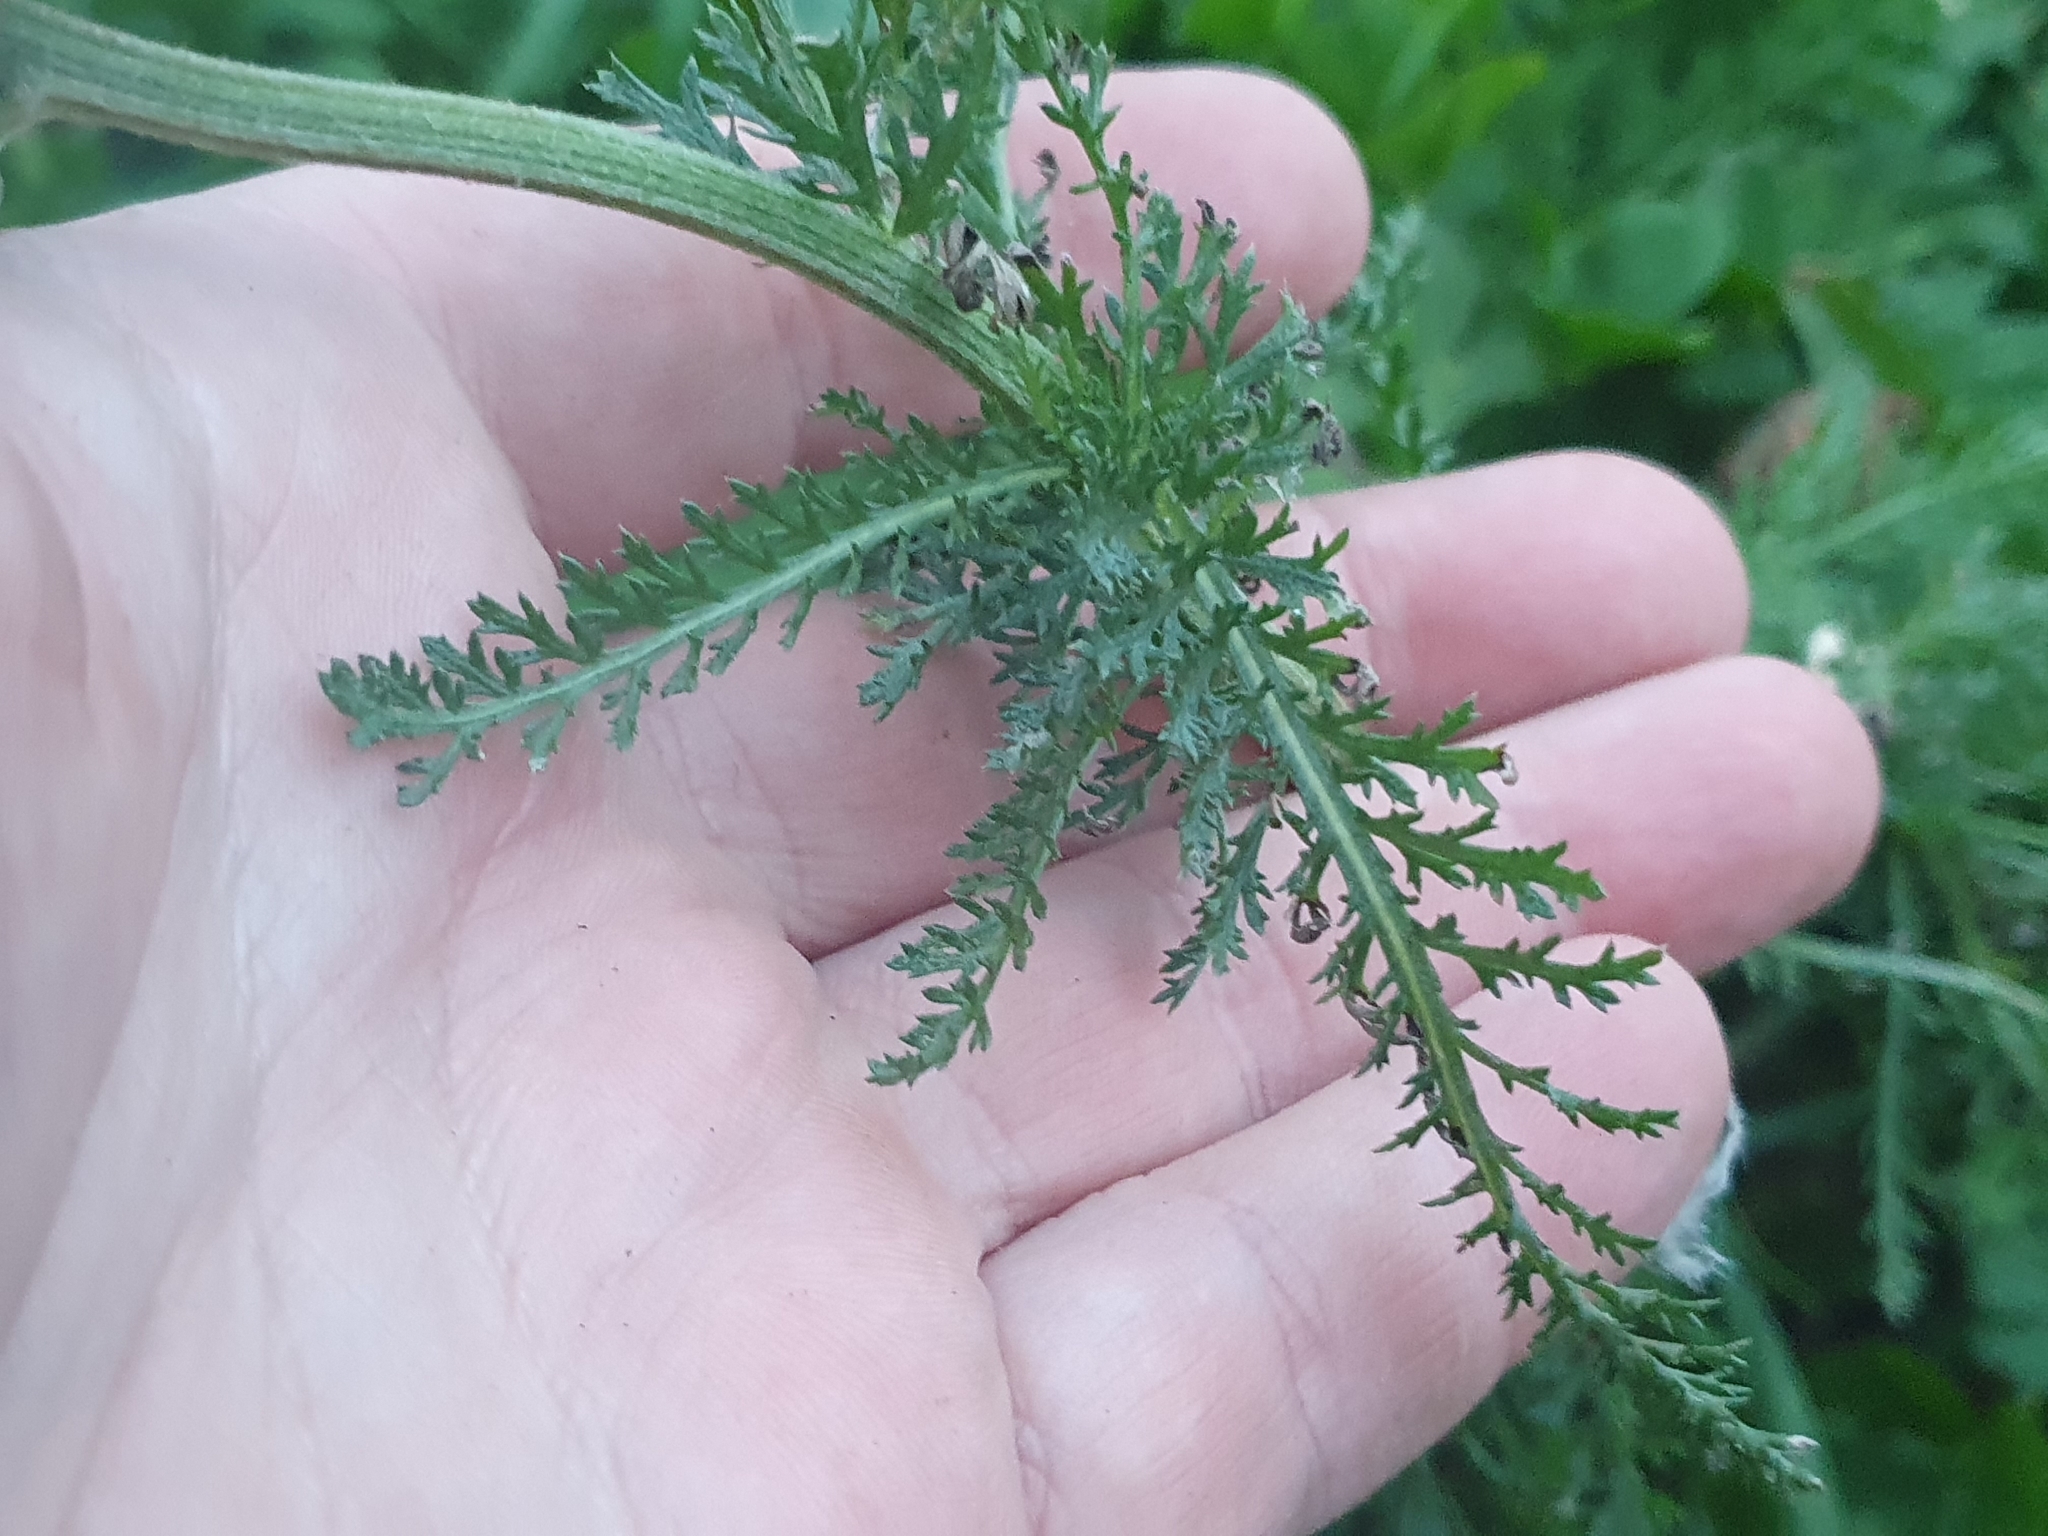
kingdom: Plantae
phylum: Tracheophyta
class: Magnoliopsida
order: Asterales
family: Asteraceae
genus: Achillea
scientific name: Achillea millefolium
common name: Yarrow
